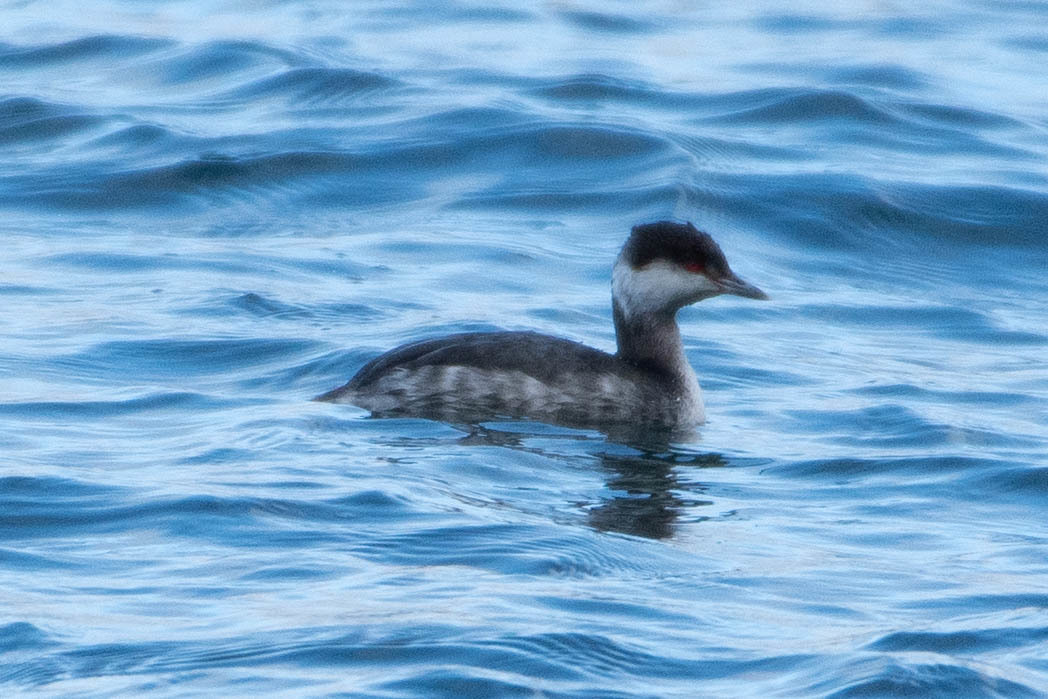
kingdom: Animalia
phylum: Chordata
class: Aves
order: Podicipediformes
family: Podicipedidae
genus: Podiceps
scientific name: Podiceps auritus
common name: Horned grebe
